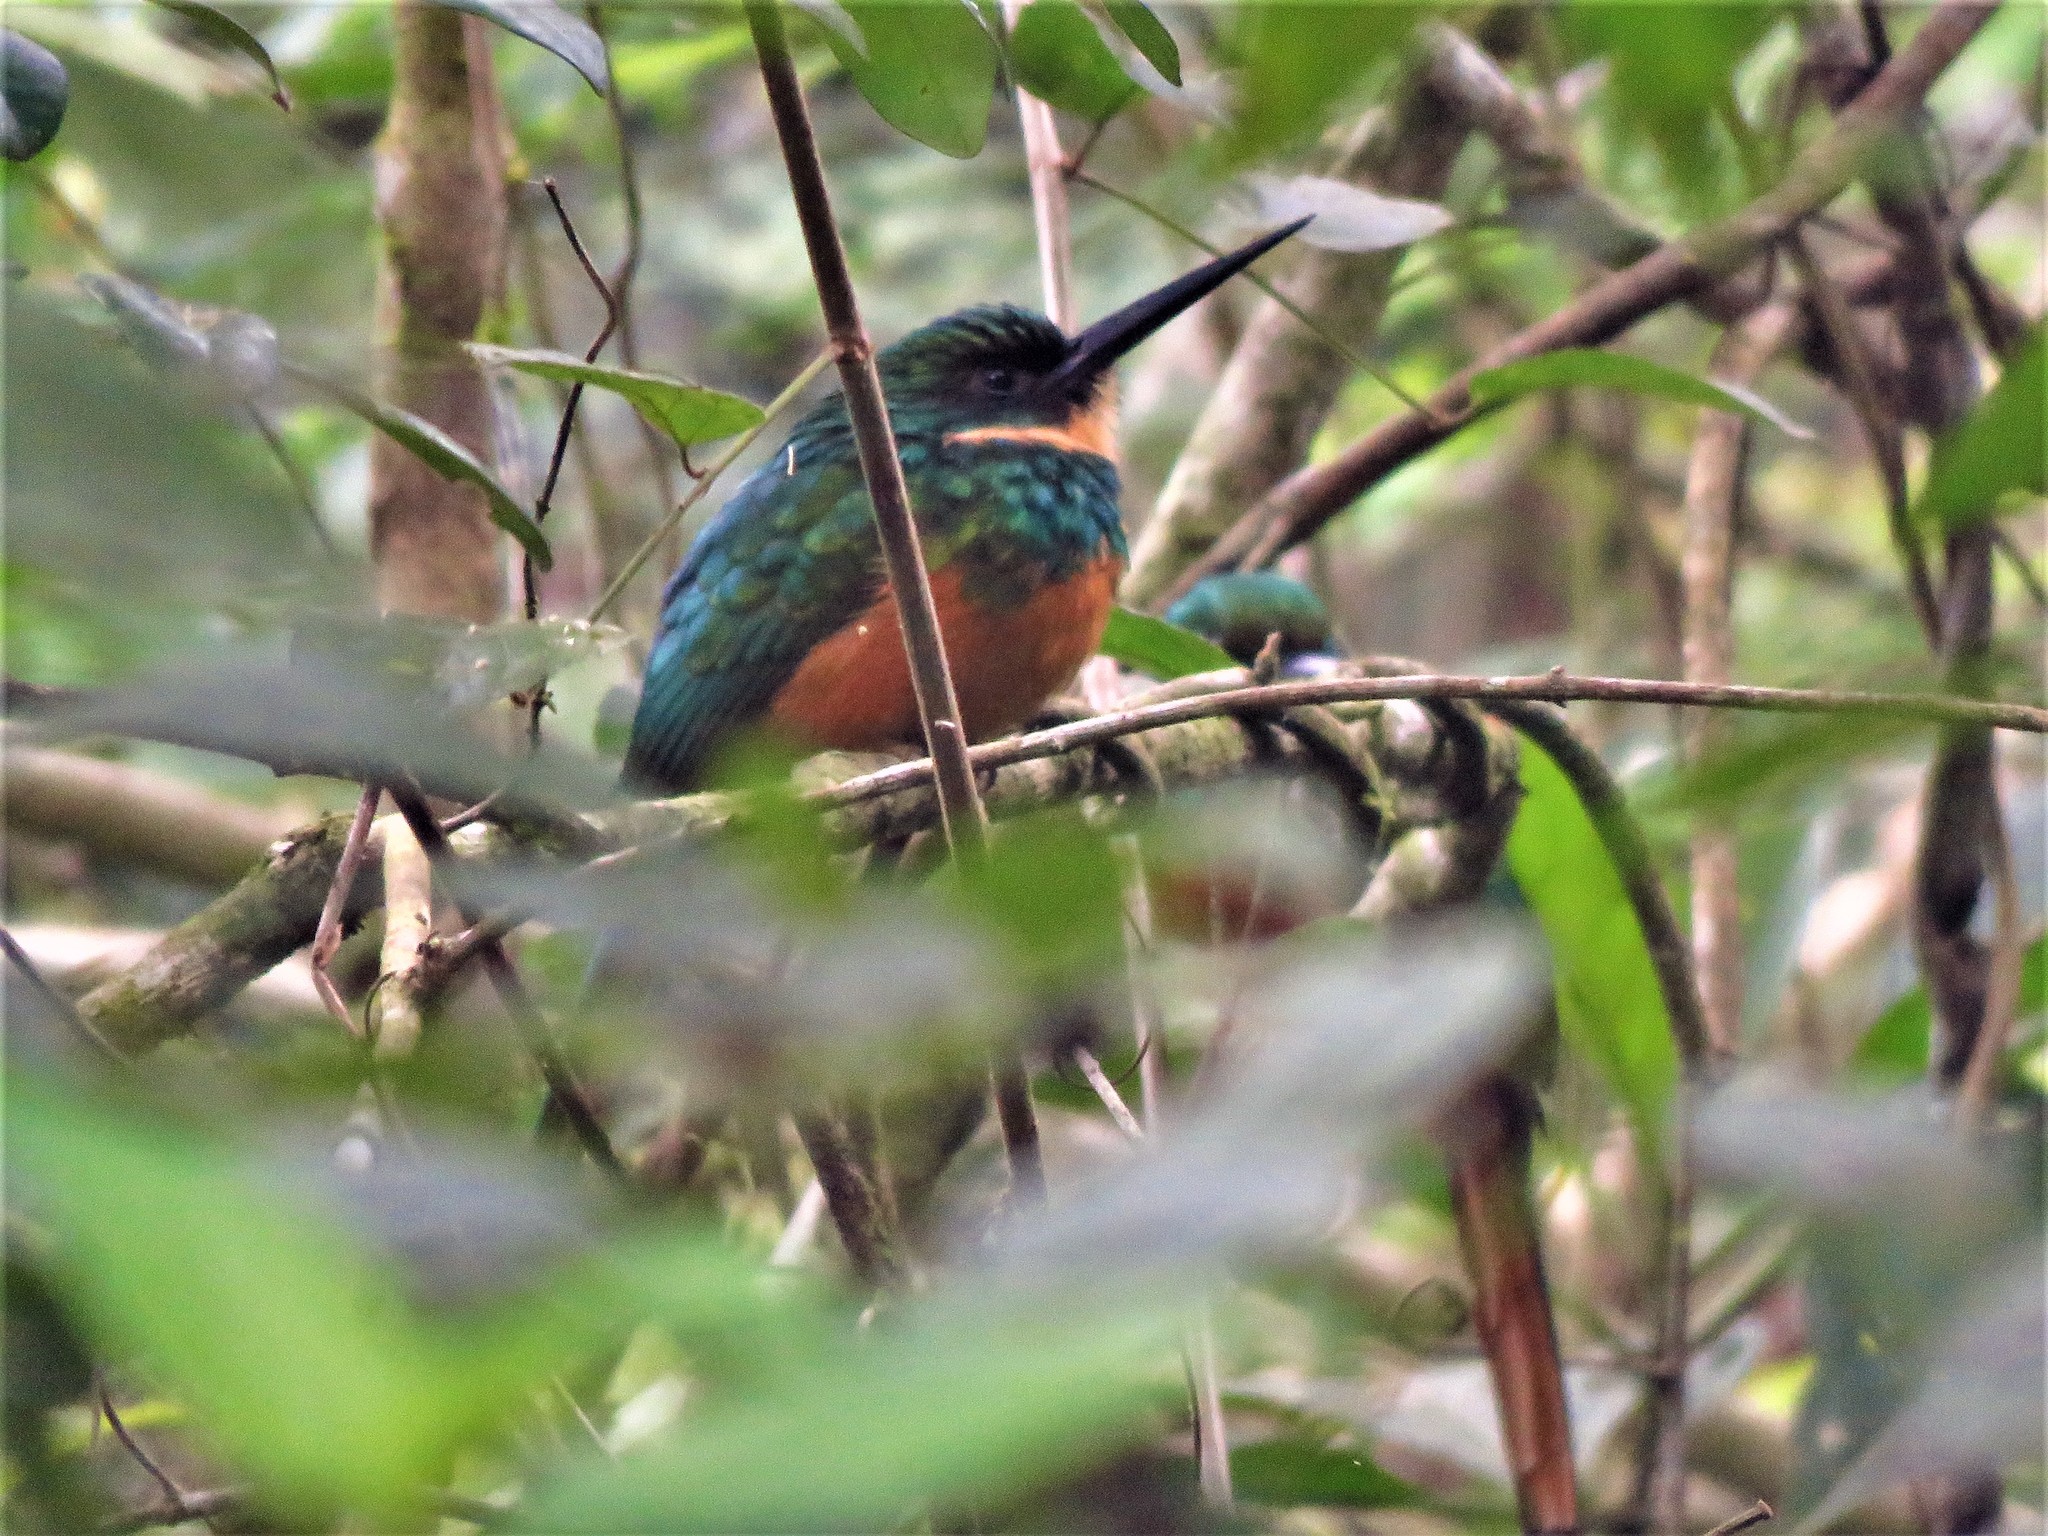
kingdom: Animalia
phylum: Chordata
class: Aves
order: Piciformes
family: Galbulidae
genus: Galbula
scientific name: Galbula ruficauda
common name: Rufous-tailed jacamar
